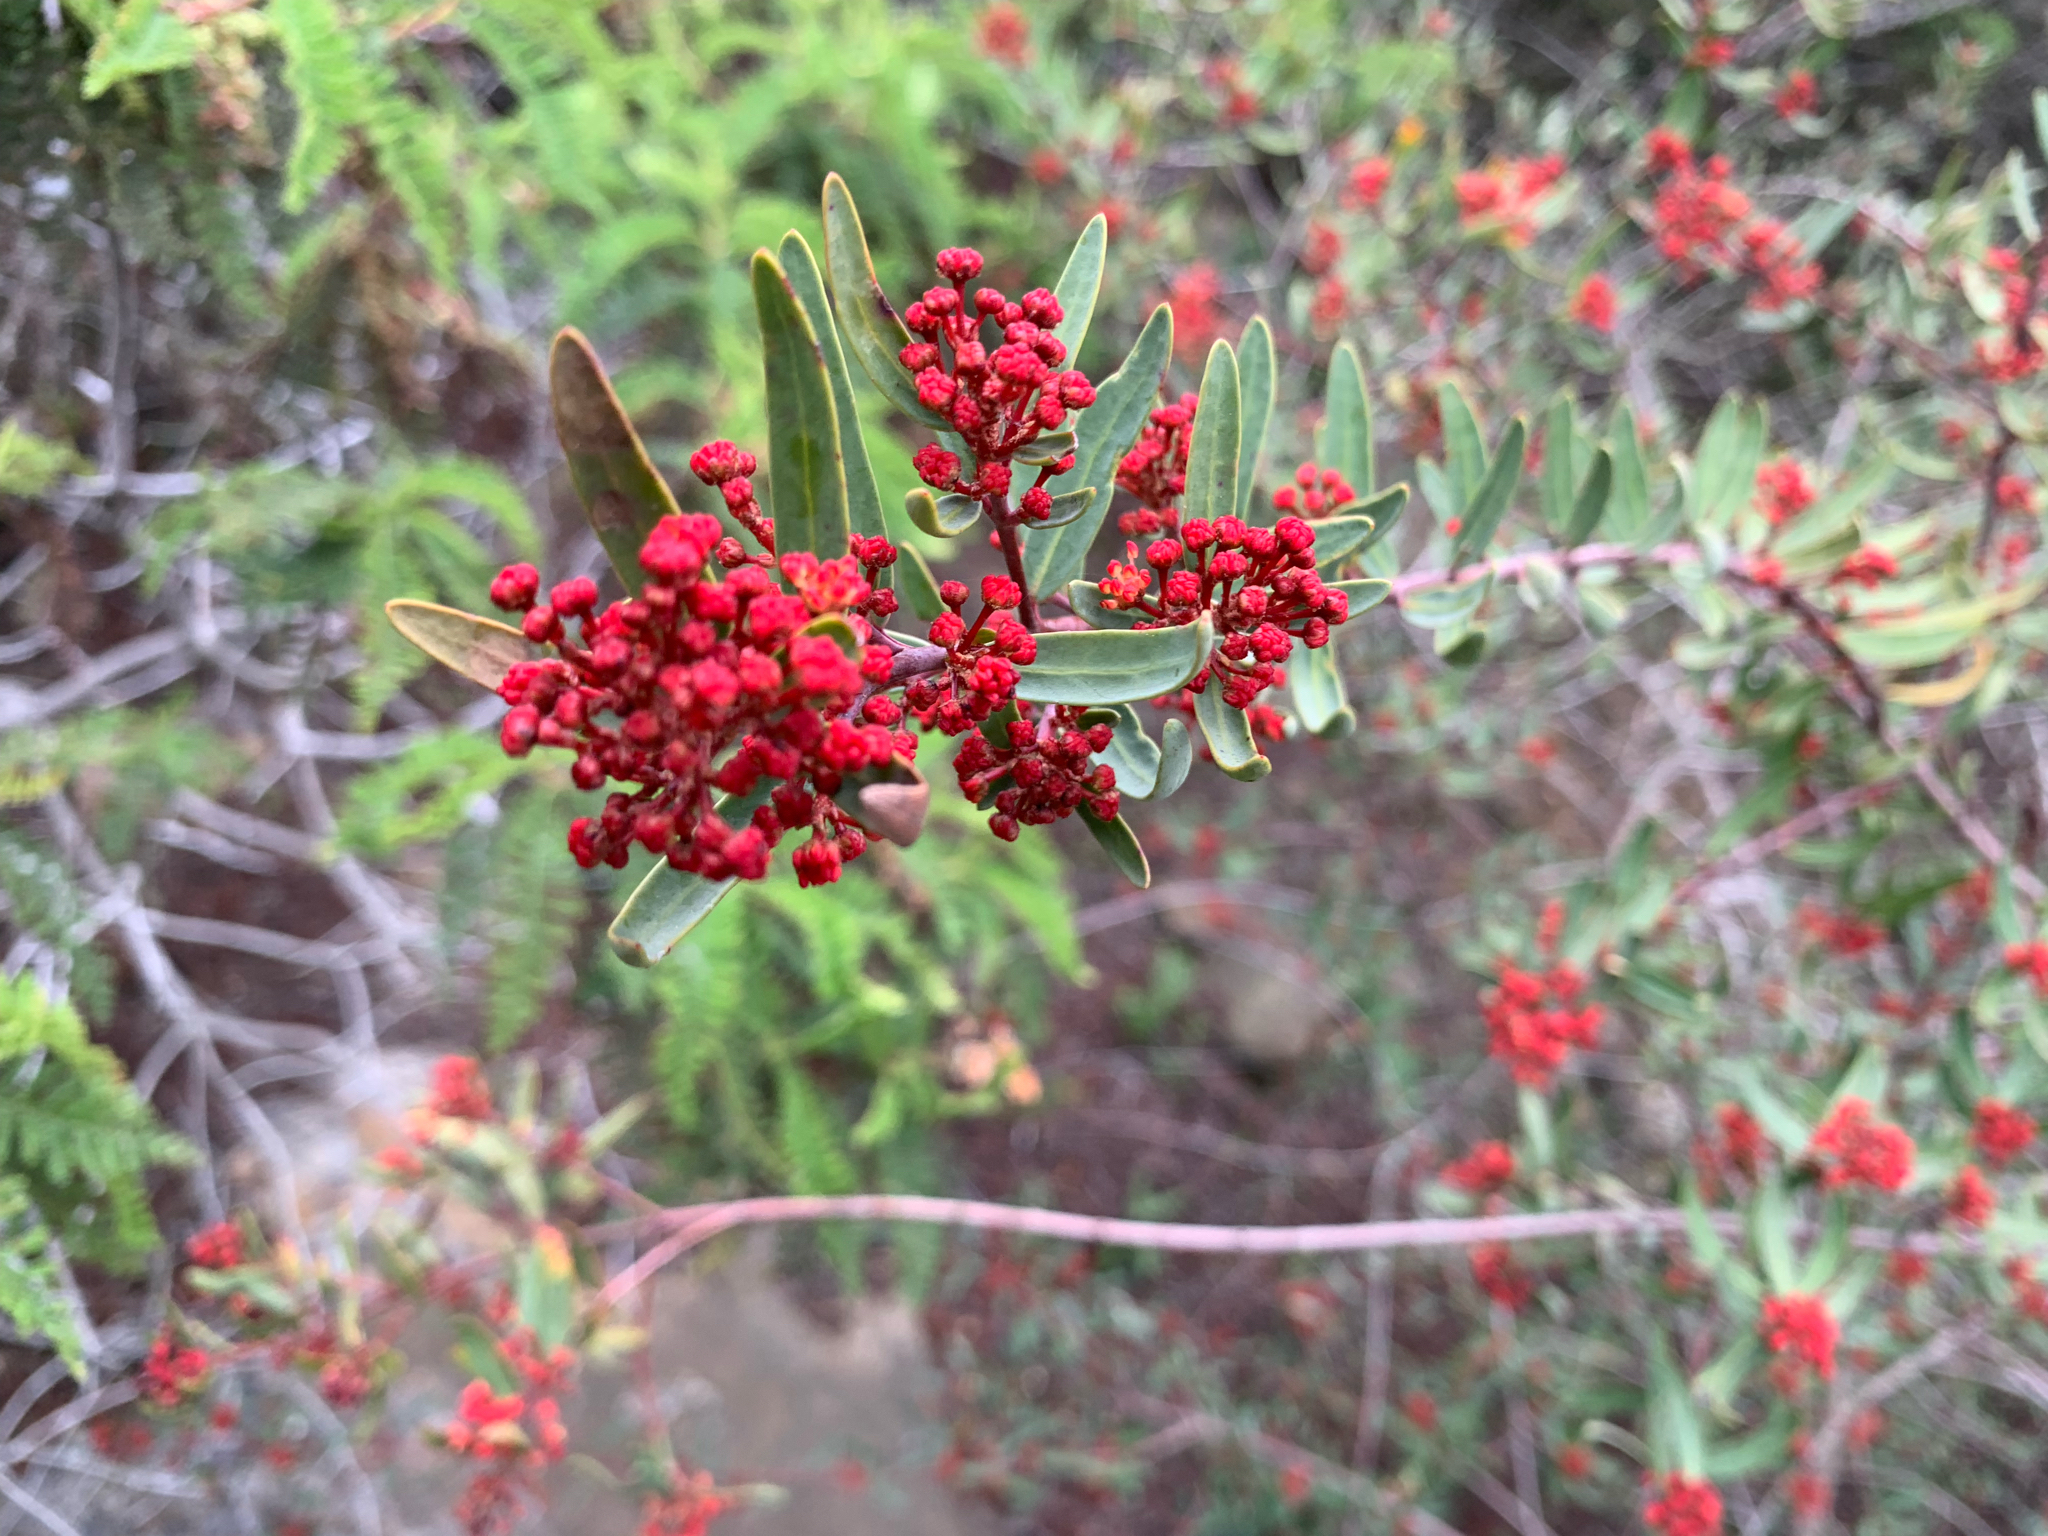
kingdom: Plantae
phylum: Tracheophyta
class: Magnoliopsida
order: Malpighiales
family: Picrodendraceae
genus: Tetracoccus
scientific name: Tetracoccus dioicus
